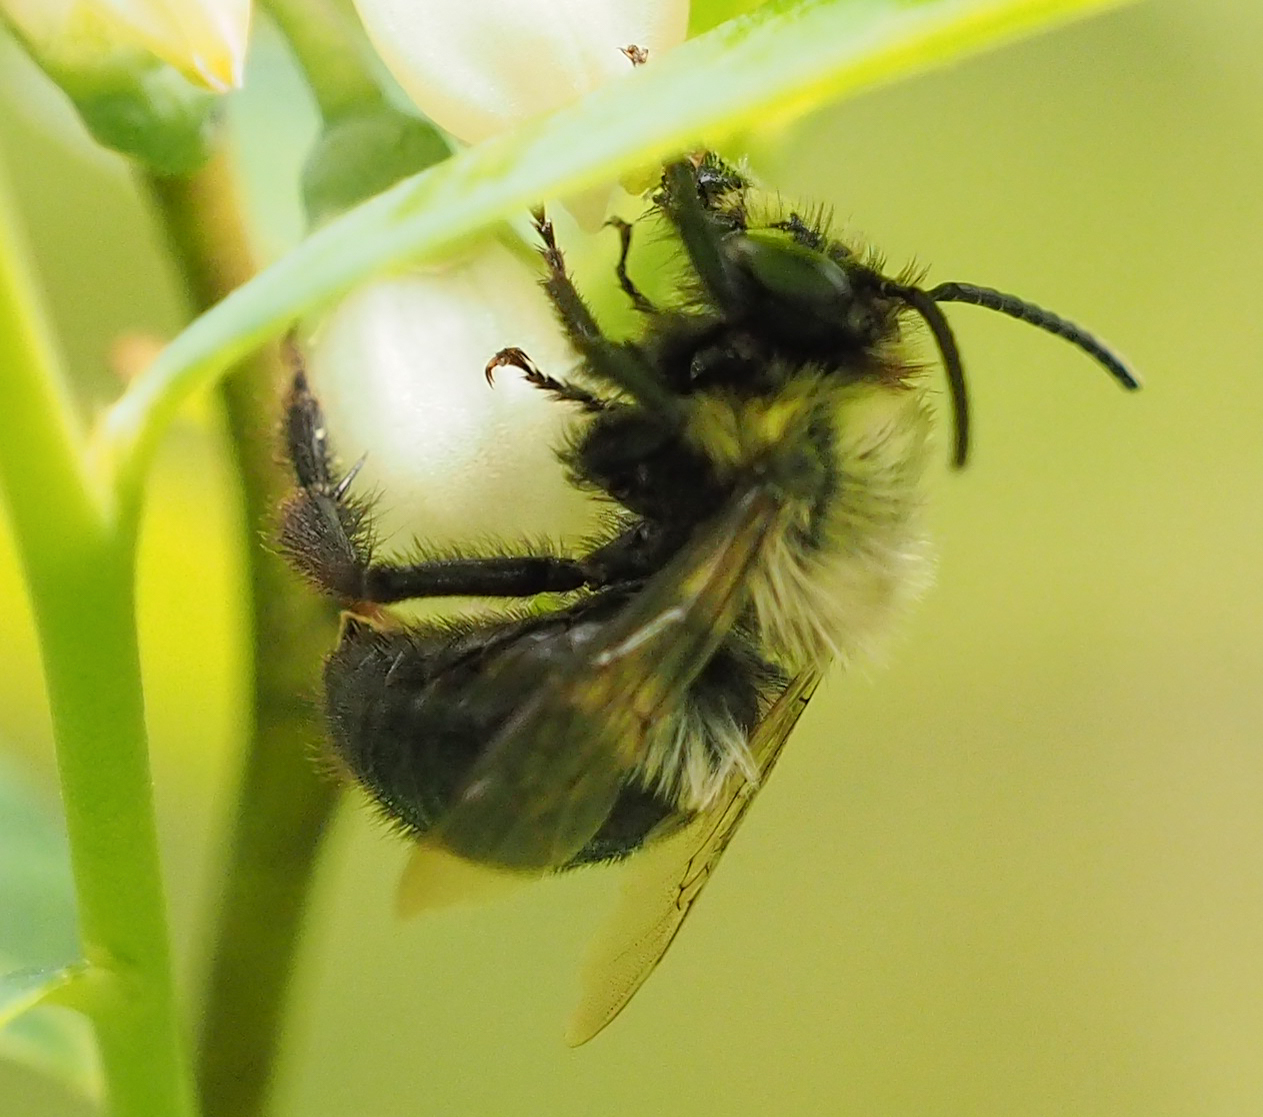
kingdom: Animalia
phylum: Arthropoda
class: Insecta
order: Hymenoptera
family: Apidae
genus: Habropoda
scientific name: Habropoda laboriosa
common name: Southeastern blueberry bee
